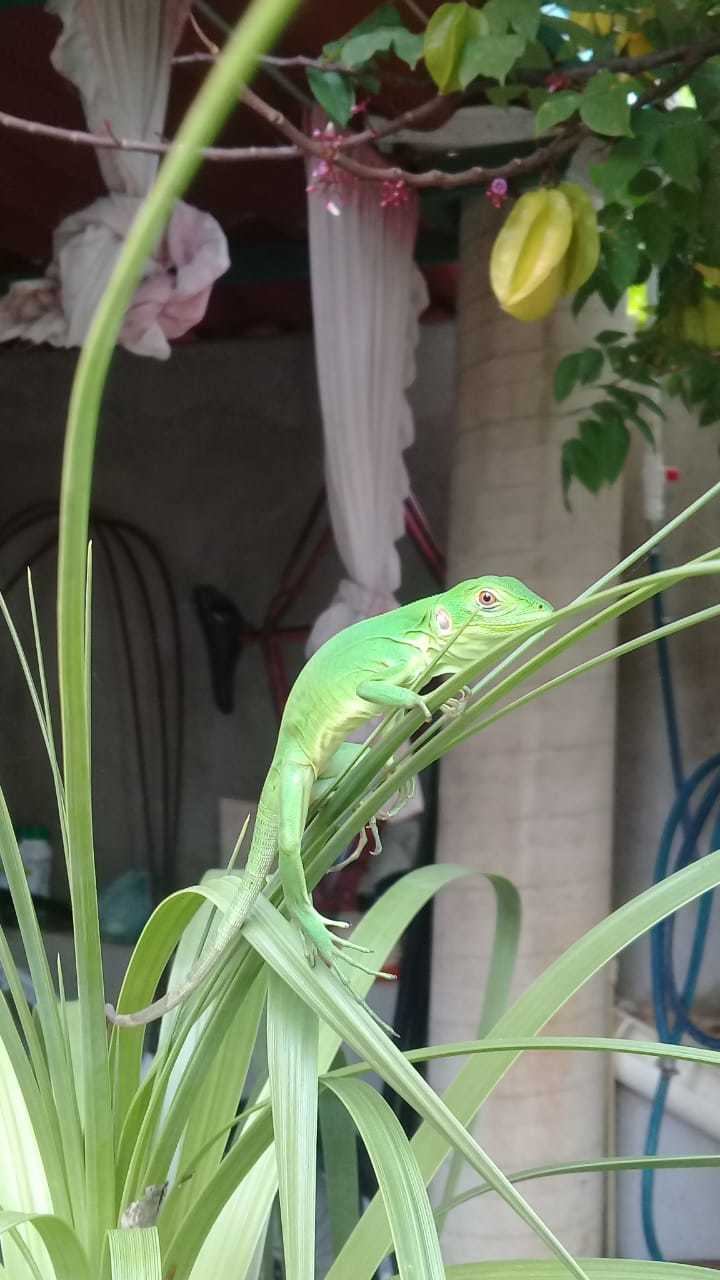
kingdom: Animalia
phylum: Chordata
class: Squamata
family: Iguanidae
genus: Ctenosaura
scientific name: Ctenosaura pectinata
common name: Guerreran spiny-tailed iguana
